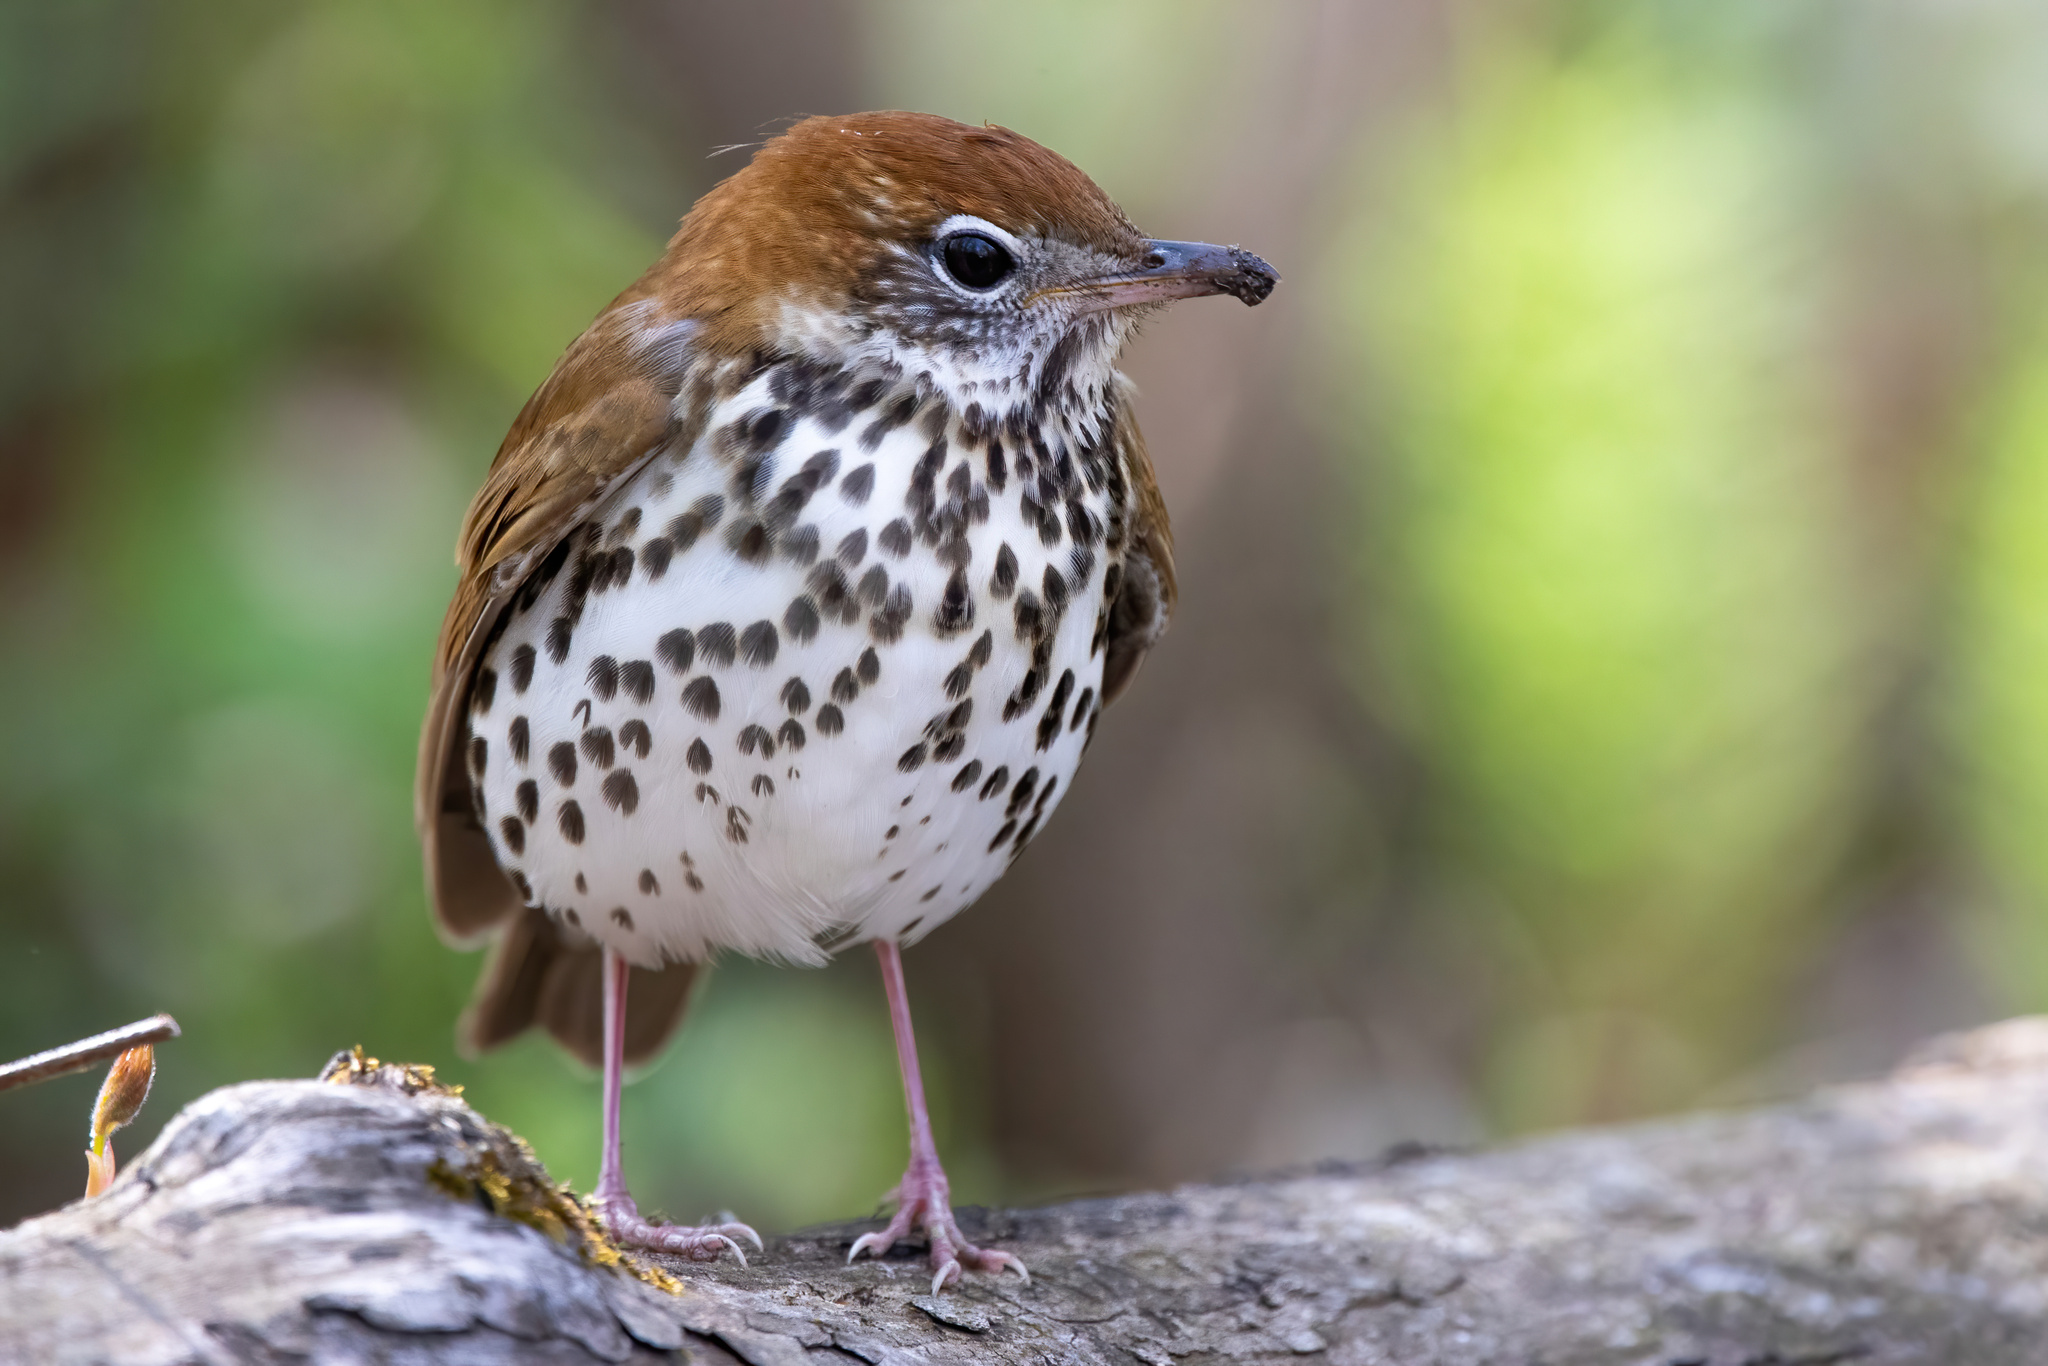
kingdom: Animalia
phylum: Chordata
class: Aves
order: Passeriformes
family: Turdidae
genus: Hylocichla
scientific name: Hylocichla mustelina
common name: Wood thrush
